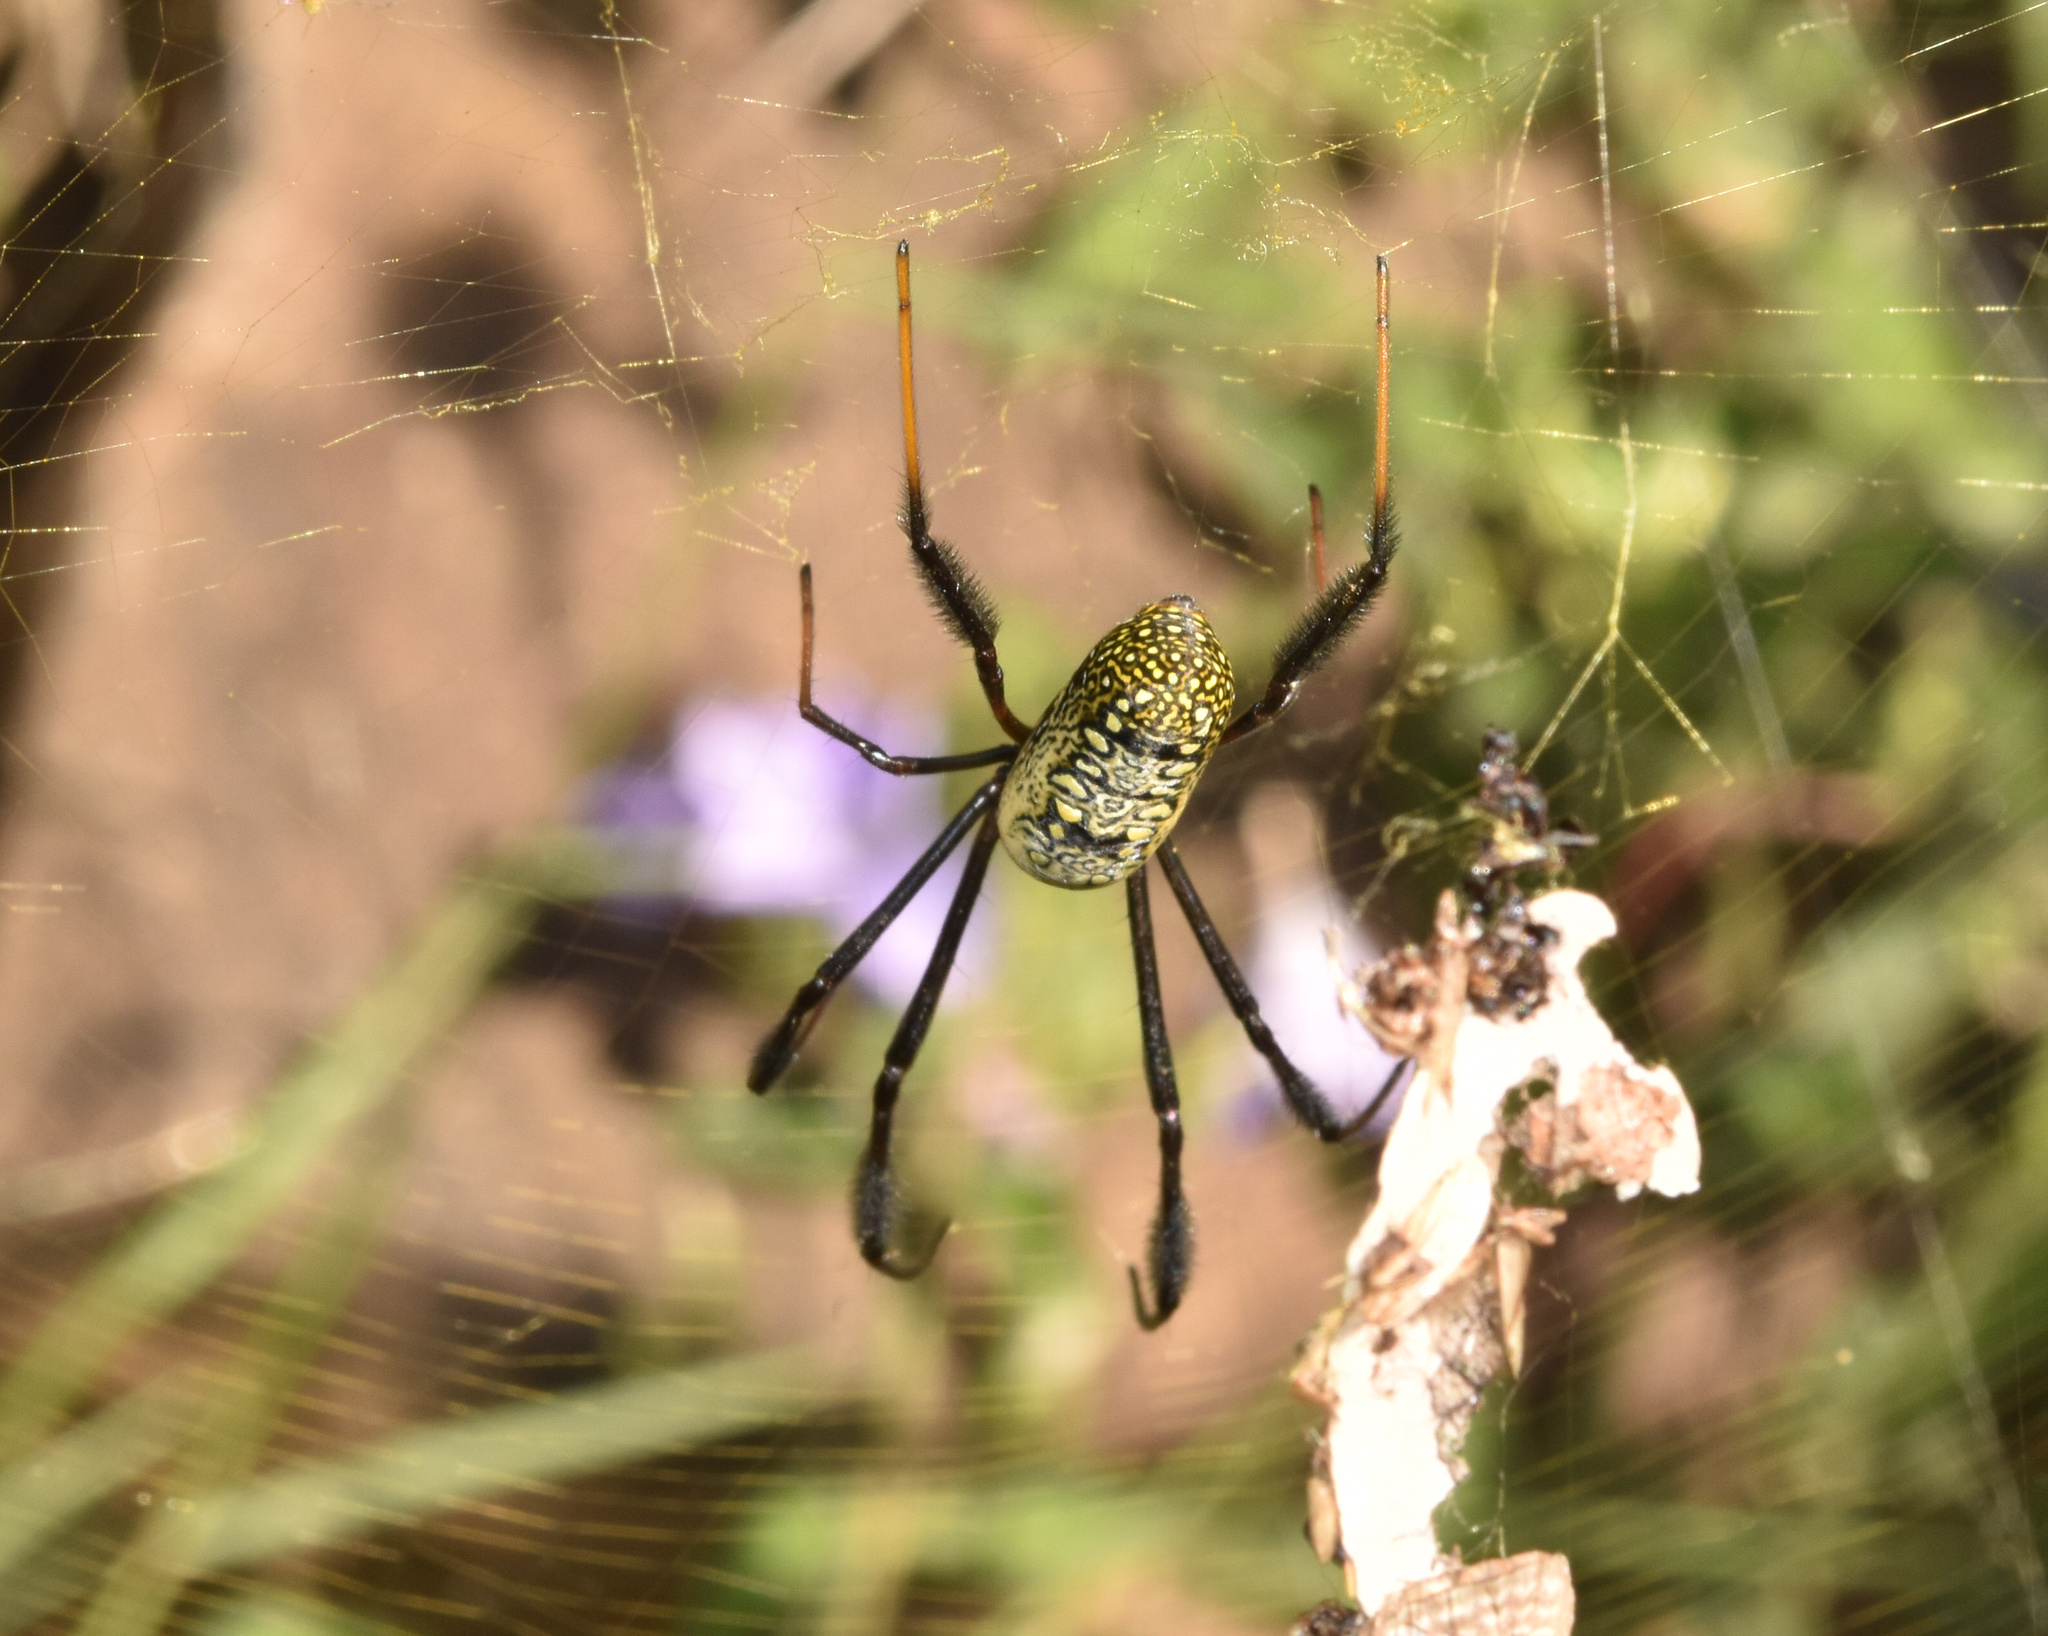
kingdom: Animalia
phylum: Arthropoda
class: Arachnida
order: Araneae
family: Araneidae
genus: Trichonephila
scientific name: Trichonephila fenestrata
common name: Hairy golden orb weaver
